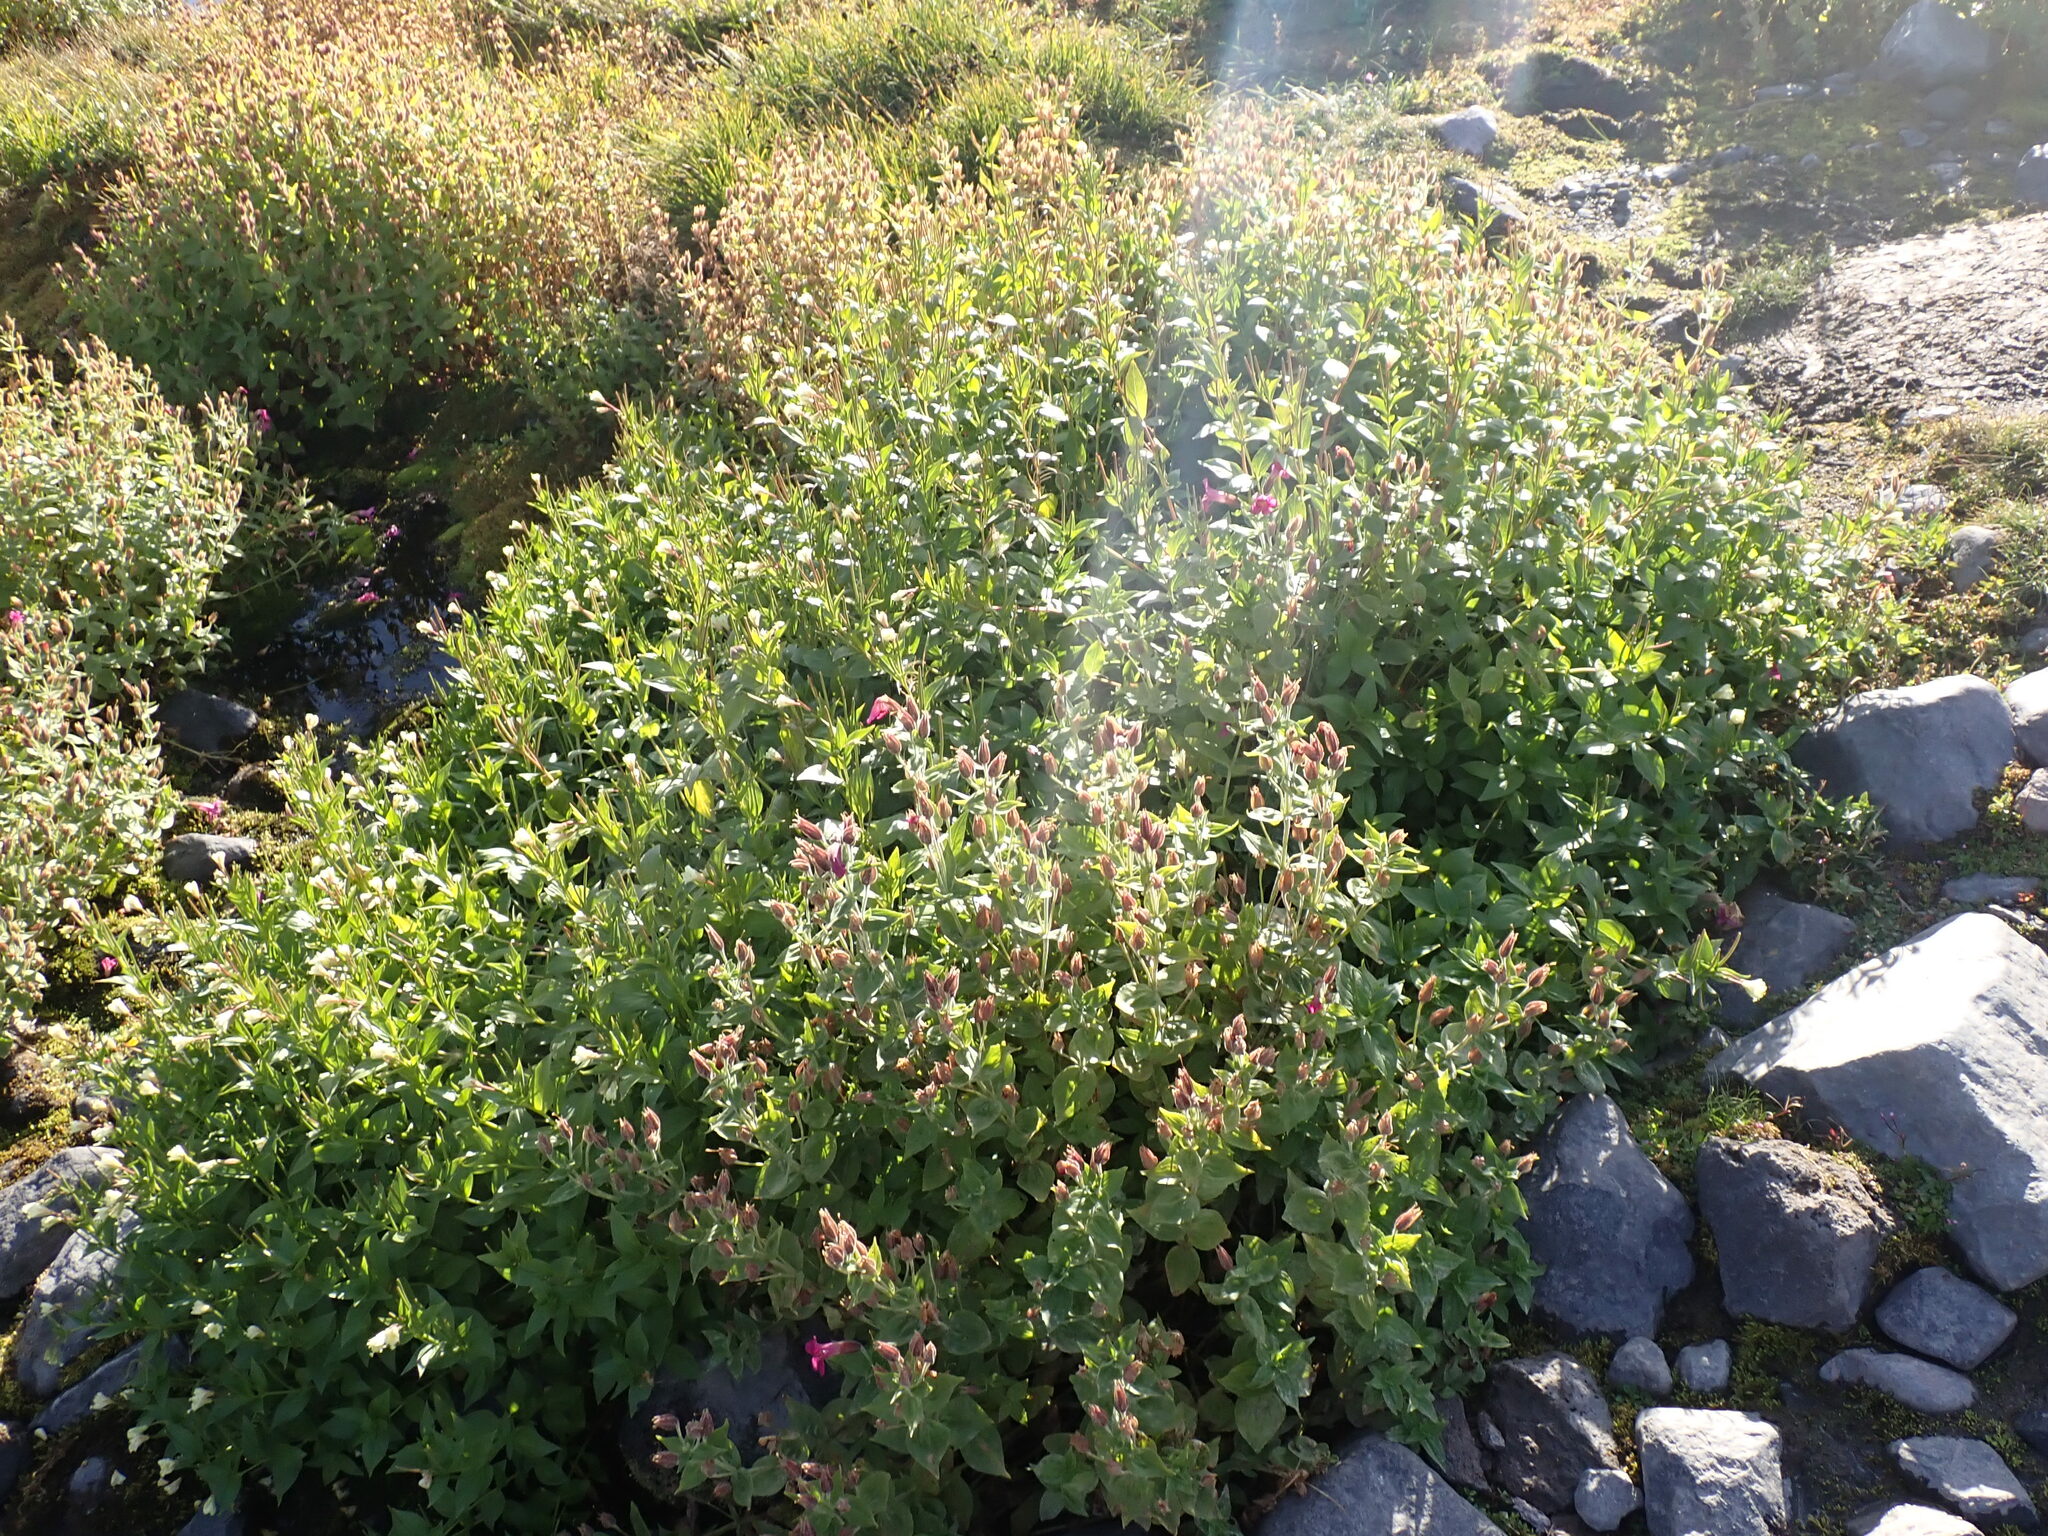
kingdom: Plantae
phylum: Tracheophyta
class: Magnoliopsida
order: Lamiales
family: Phrymaceae
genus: Erythranthe
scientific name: Erythranthe lewisii
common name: Lewis's monkey-flower
